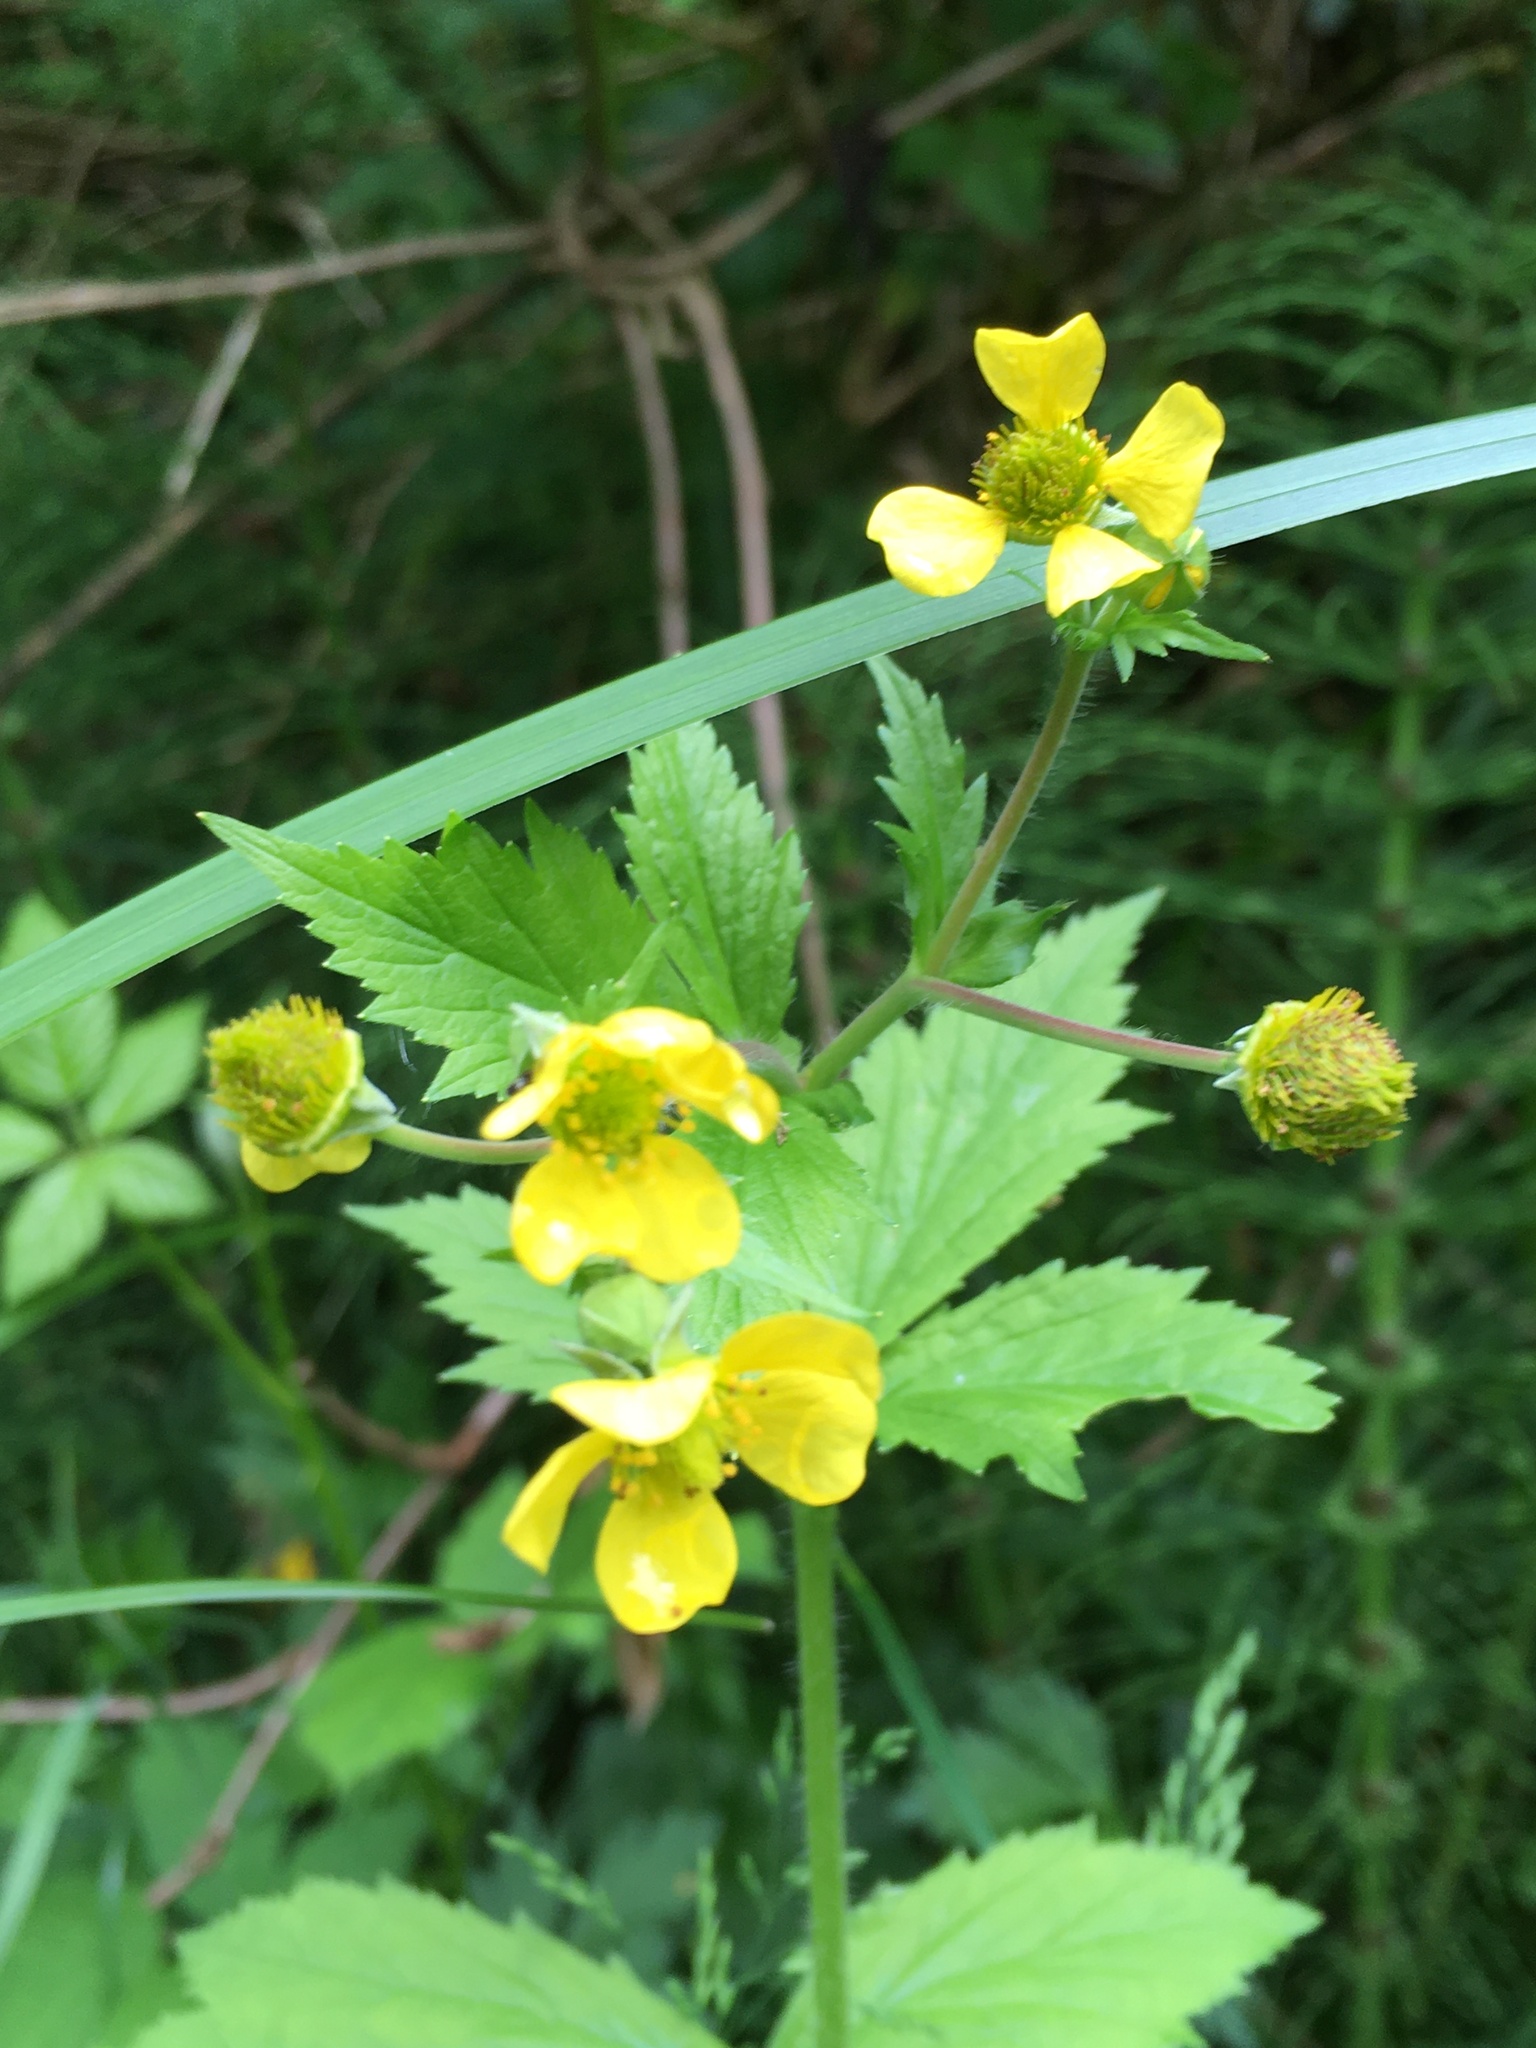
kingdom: Plantae
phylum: Tracheophyta
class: Magnoliopsida
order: Rosales
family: Rosaceae
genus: Geum
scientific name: Geum macrophyllum
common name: Large-leaved avens
